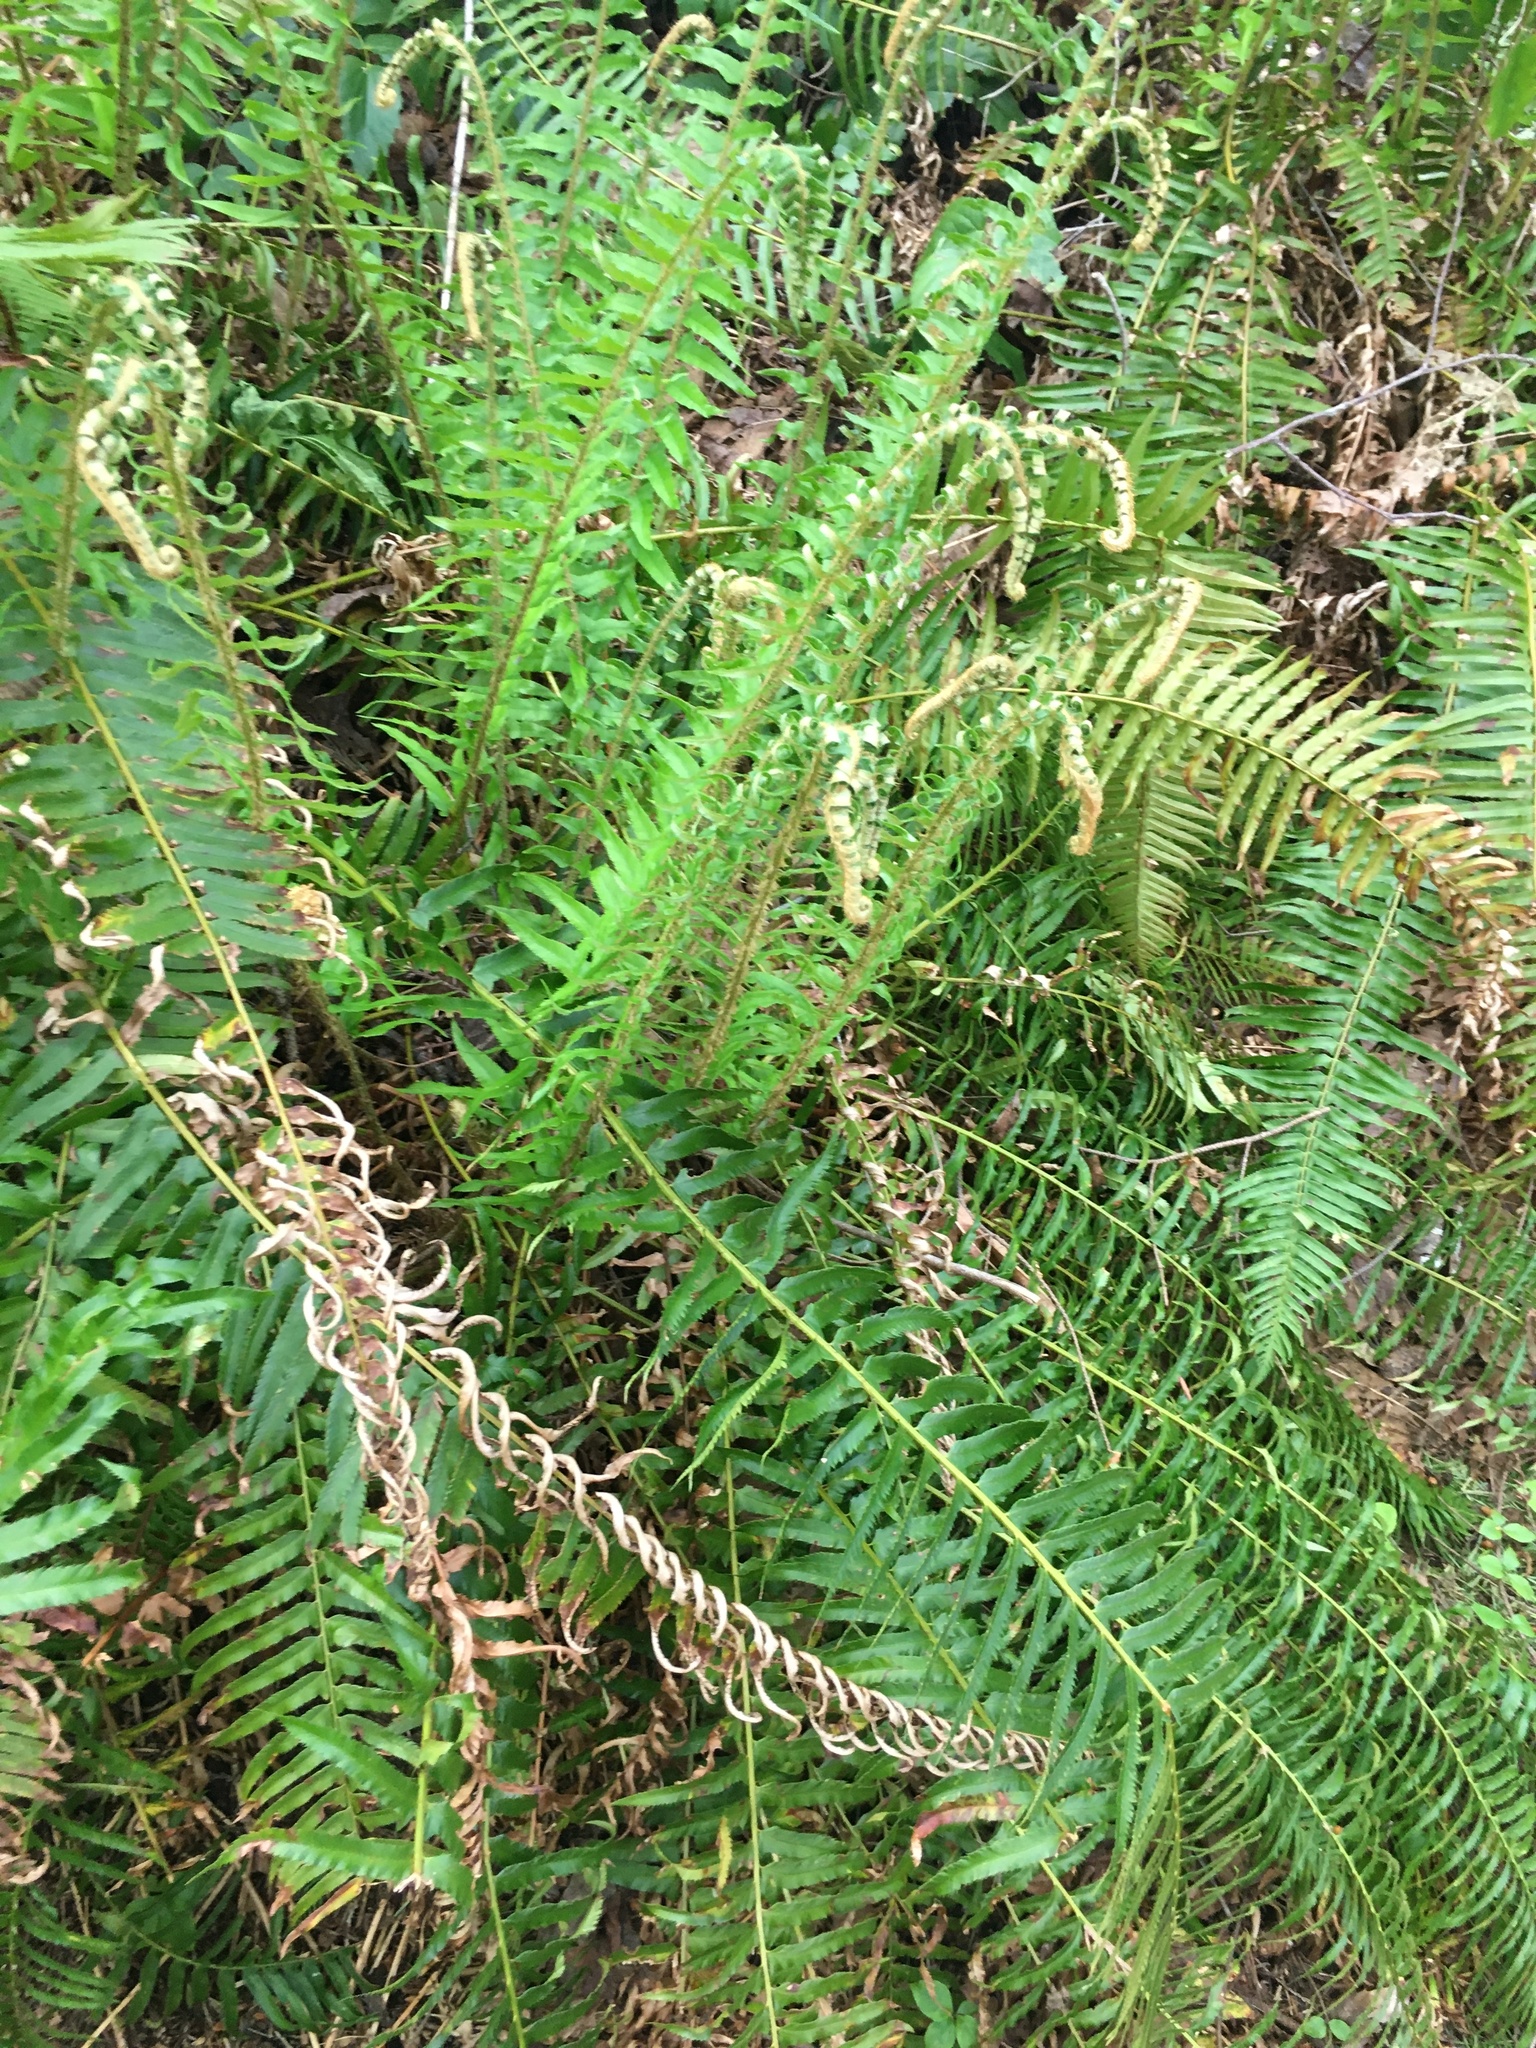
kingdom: Plantae
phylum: Tracheophyta
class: Polypodiopsida
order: Polypodiales
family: Dryopteridaceae
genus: Polystichum
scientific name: Polystichum munitum
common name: Western sword-fern
